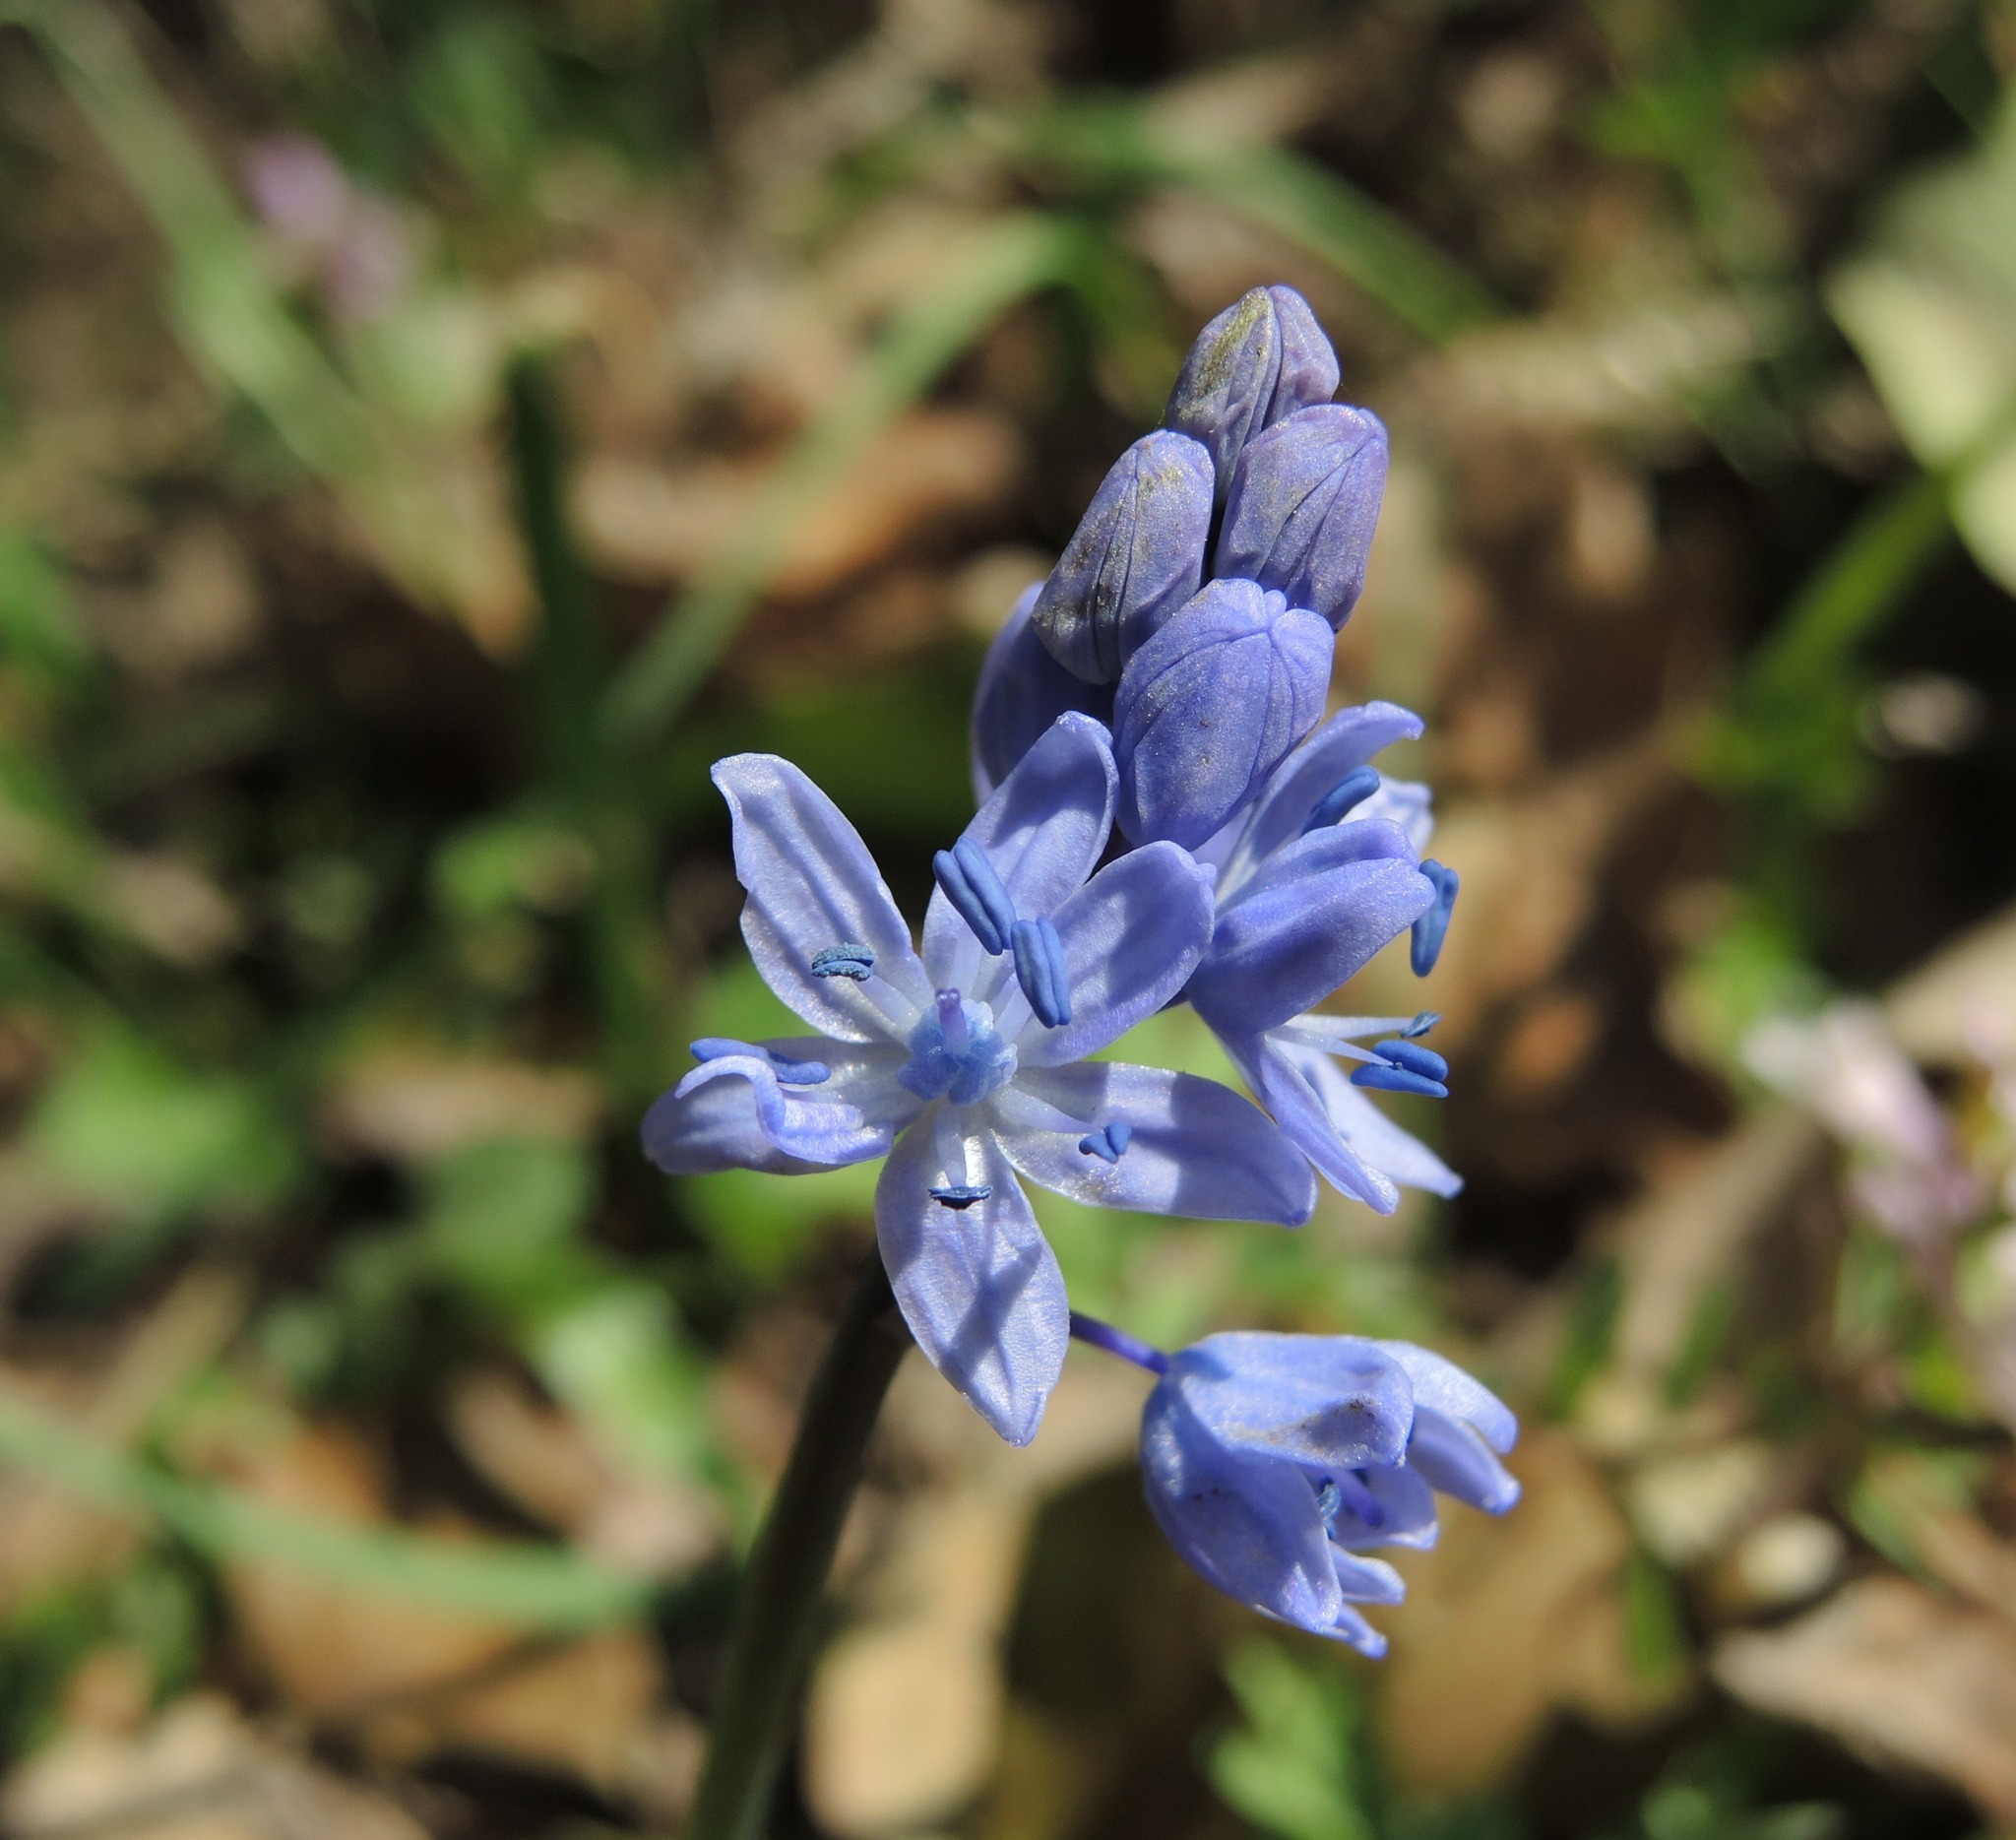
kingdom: Plantae
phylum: Tracheophyta
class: Liliopsida
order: Asparagales
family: Asparagaceae
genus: Scilla
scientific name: Scilla bifolia
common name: Alpine squill
